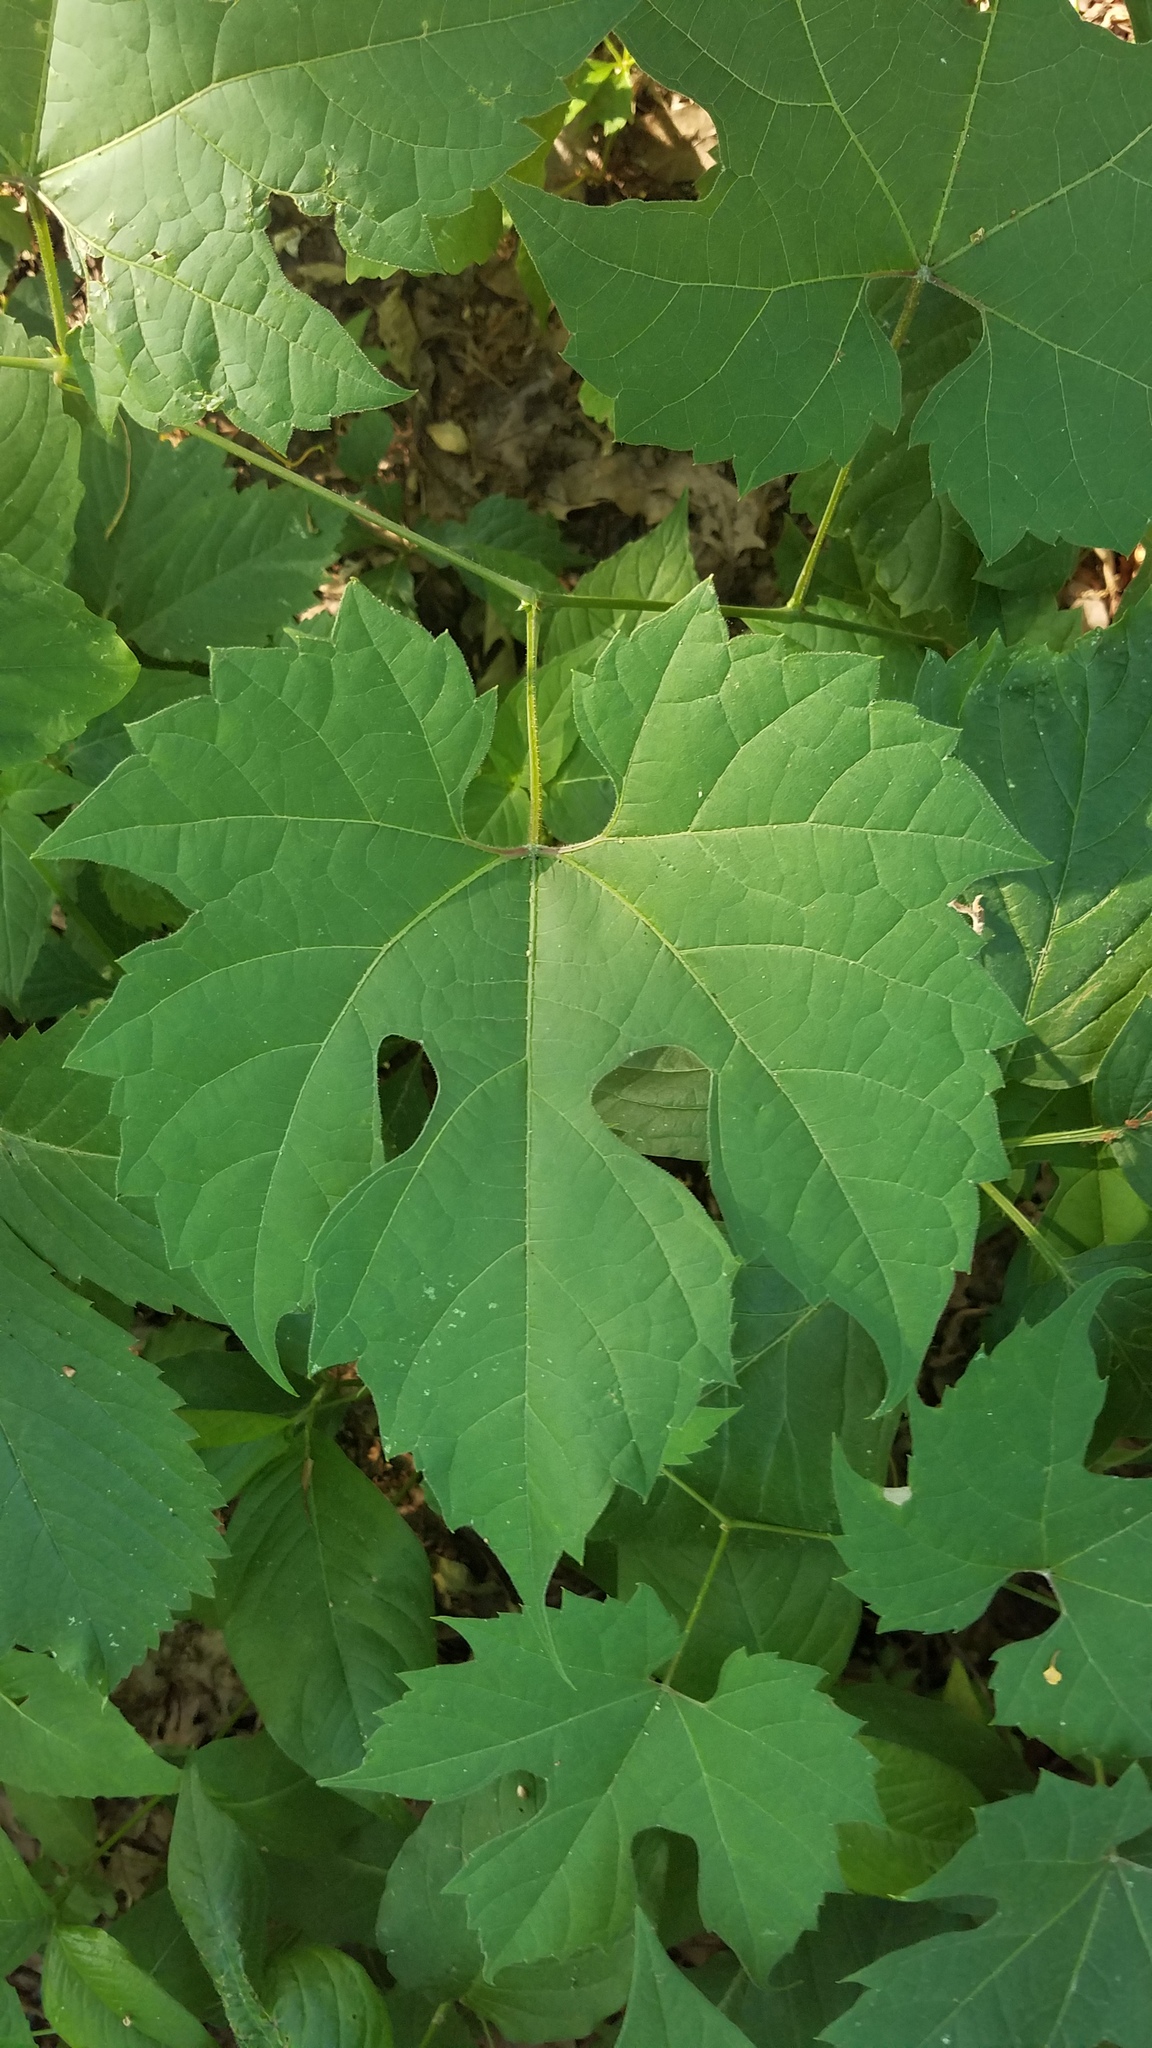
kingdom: Plantae
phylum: Tracheophyta
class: Magnoliopsida
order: Vitales
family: Vitaceae
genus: Vitis
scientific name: Vitis riparia
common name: Frost grape
